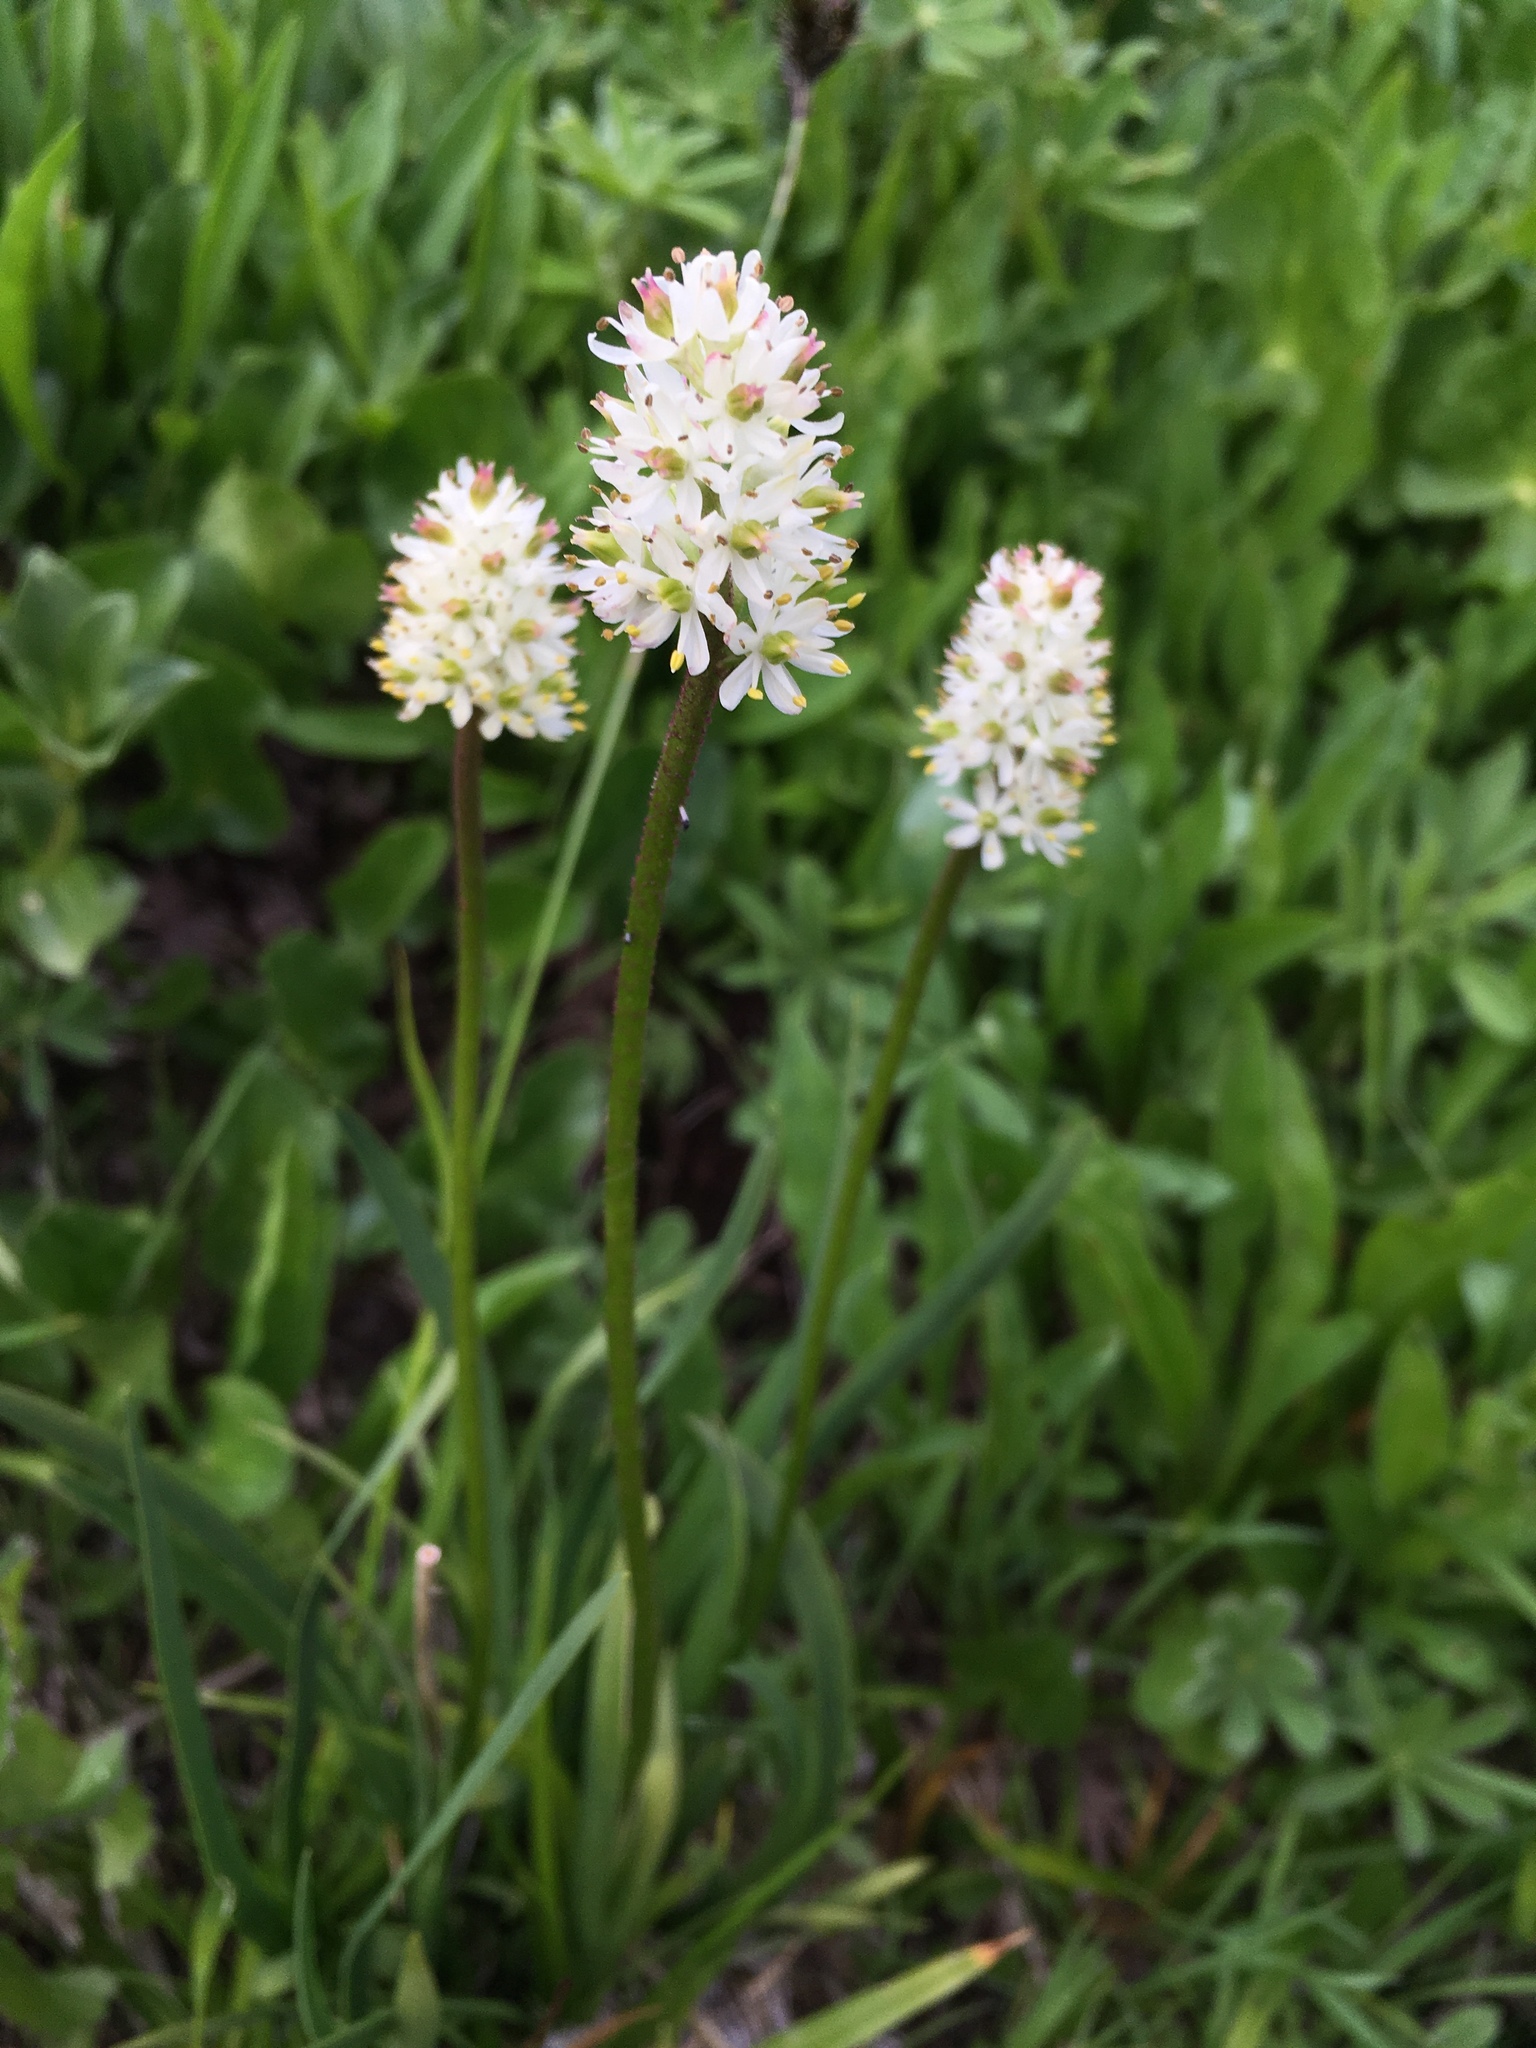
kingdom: Plantae
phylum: Tracheophyta
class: Liliopsida
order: Alismatales
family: Tofieldiaceae
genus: Triantha
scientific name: Triantha occidentalis
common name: Western false asphodel
